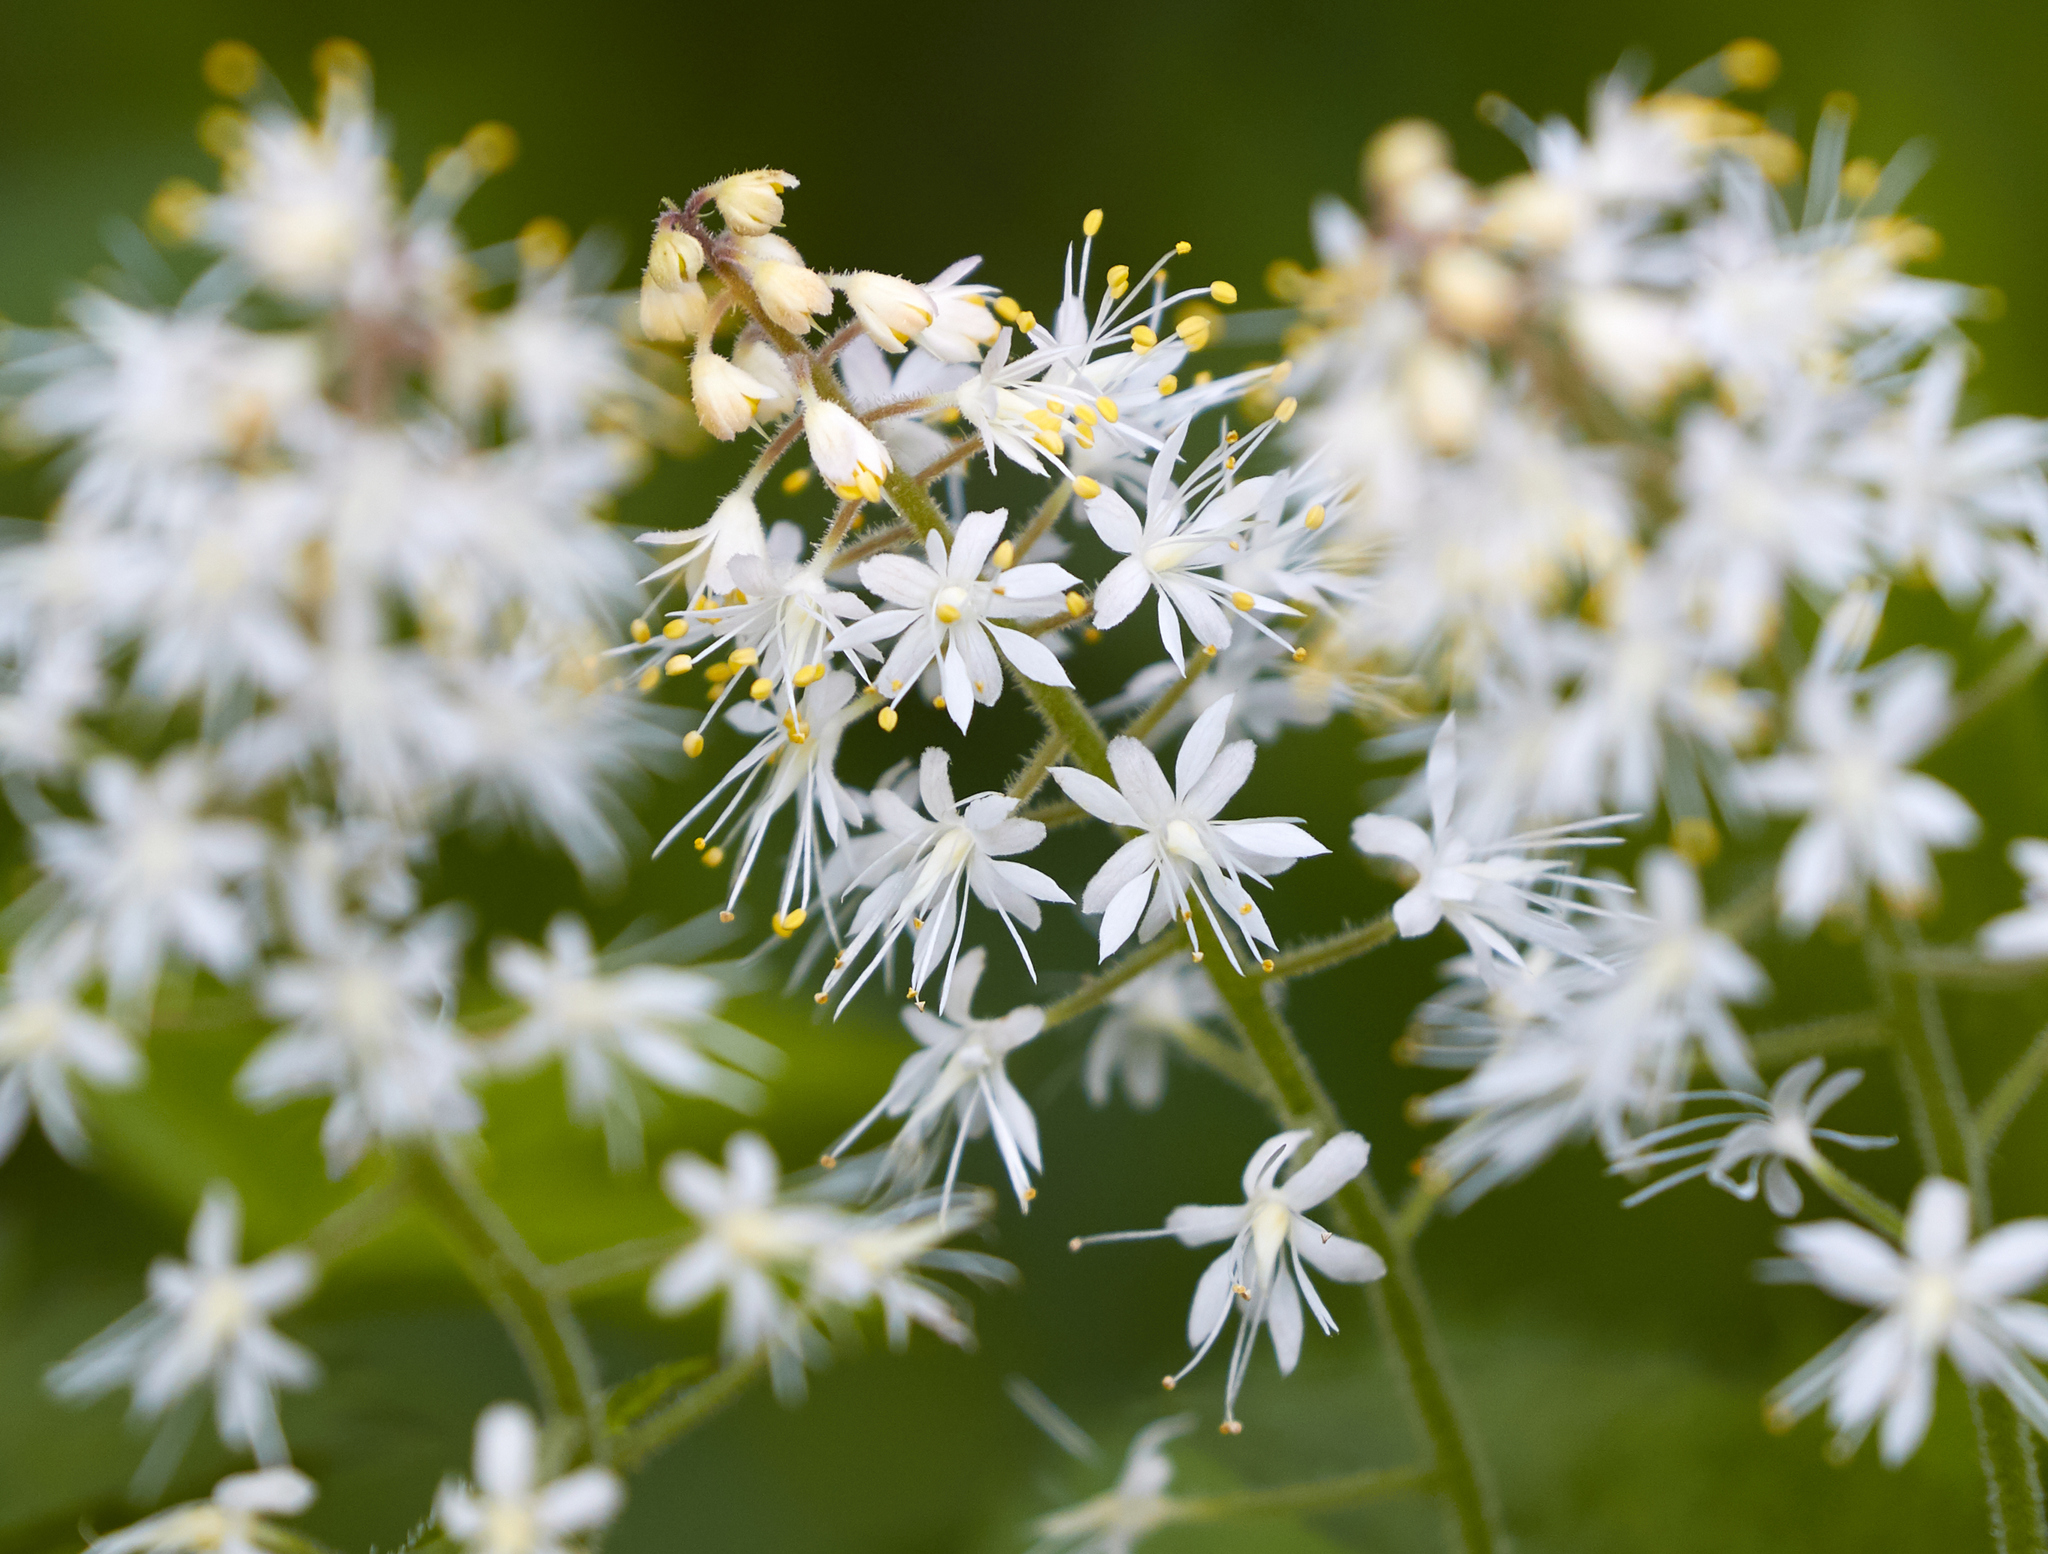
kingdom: Plantae
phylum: Tracheophyta
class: Magnoliopsida
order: Saxifragales
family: Saxifragaceae
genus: Tiarella
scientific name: Tiarella stolonifera
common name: Stoloniferous foamflower
